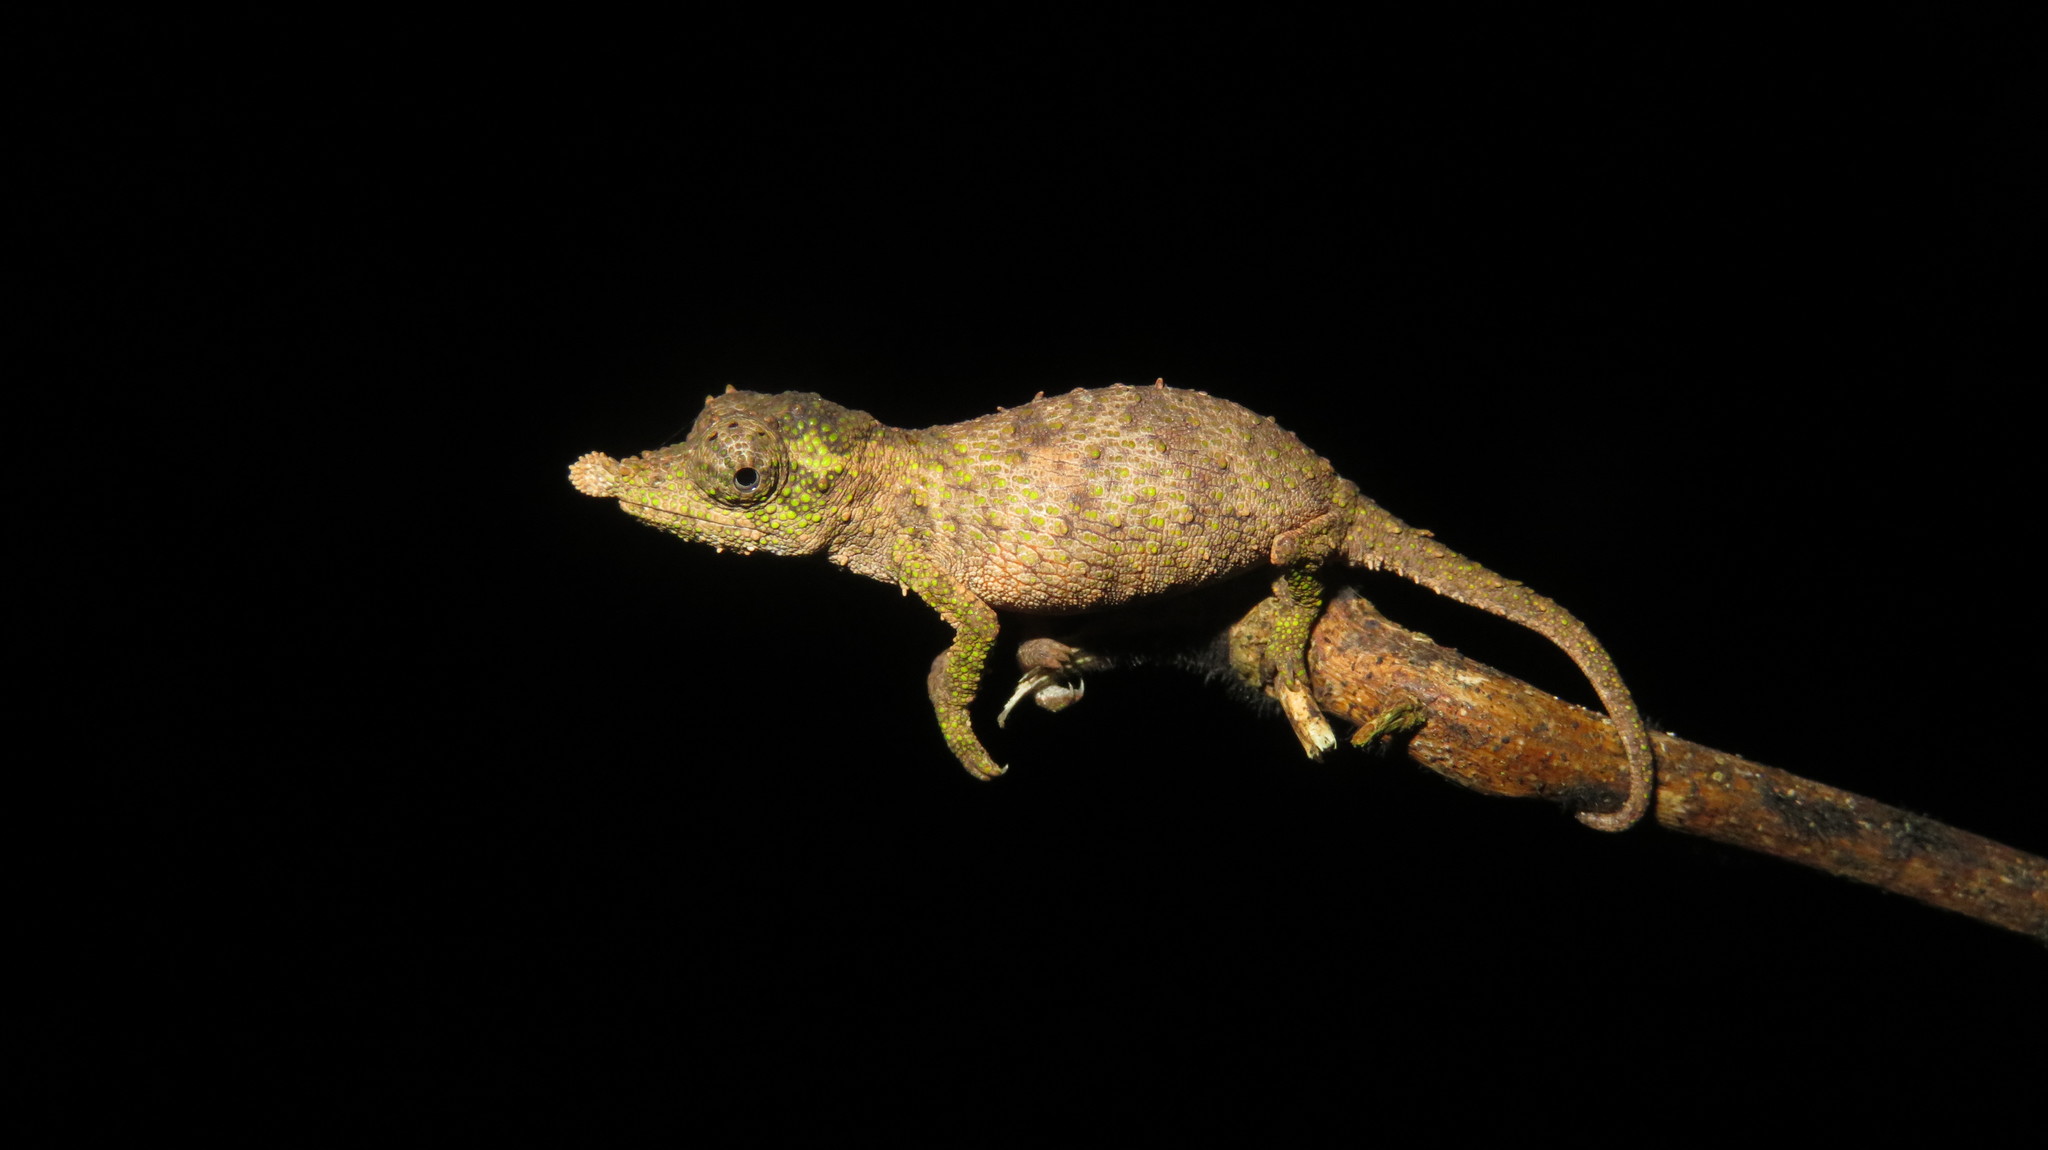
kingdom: Animalia
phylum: Chordata
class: Squamata
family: Chamaeleonidae
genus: Rhampholeon
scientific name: Rhampholeon spinosus
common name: Rosette-nosed pygmy chameleon
